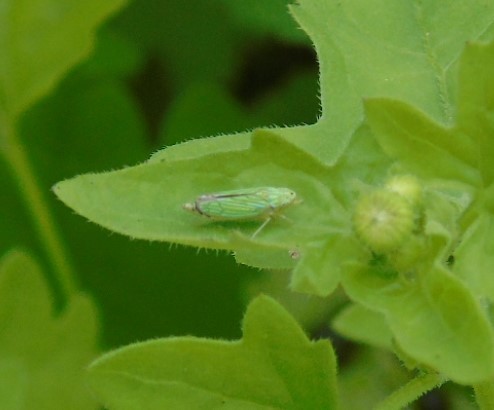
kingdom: Animalia
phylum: Arthropoda
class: Insecta
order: Hemiptera
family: Cicadellidae
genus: Graphocephala
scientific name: Graphocephala cythura
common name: Leafhopper
